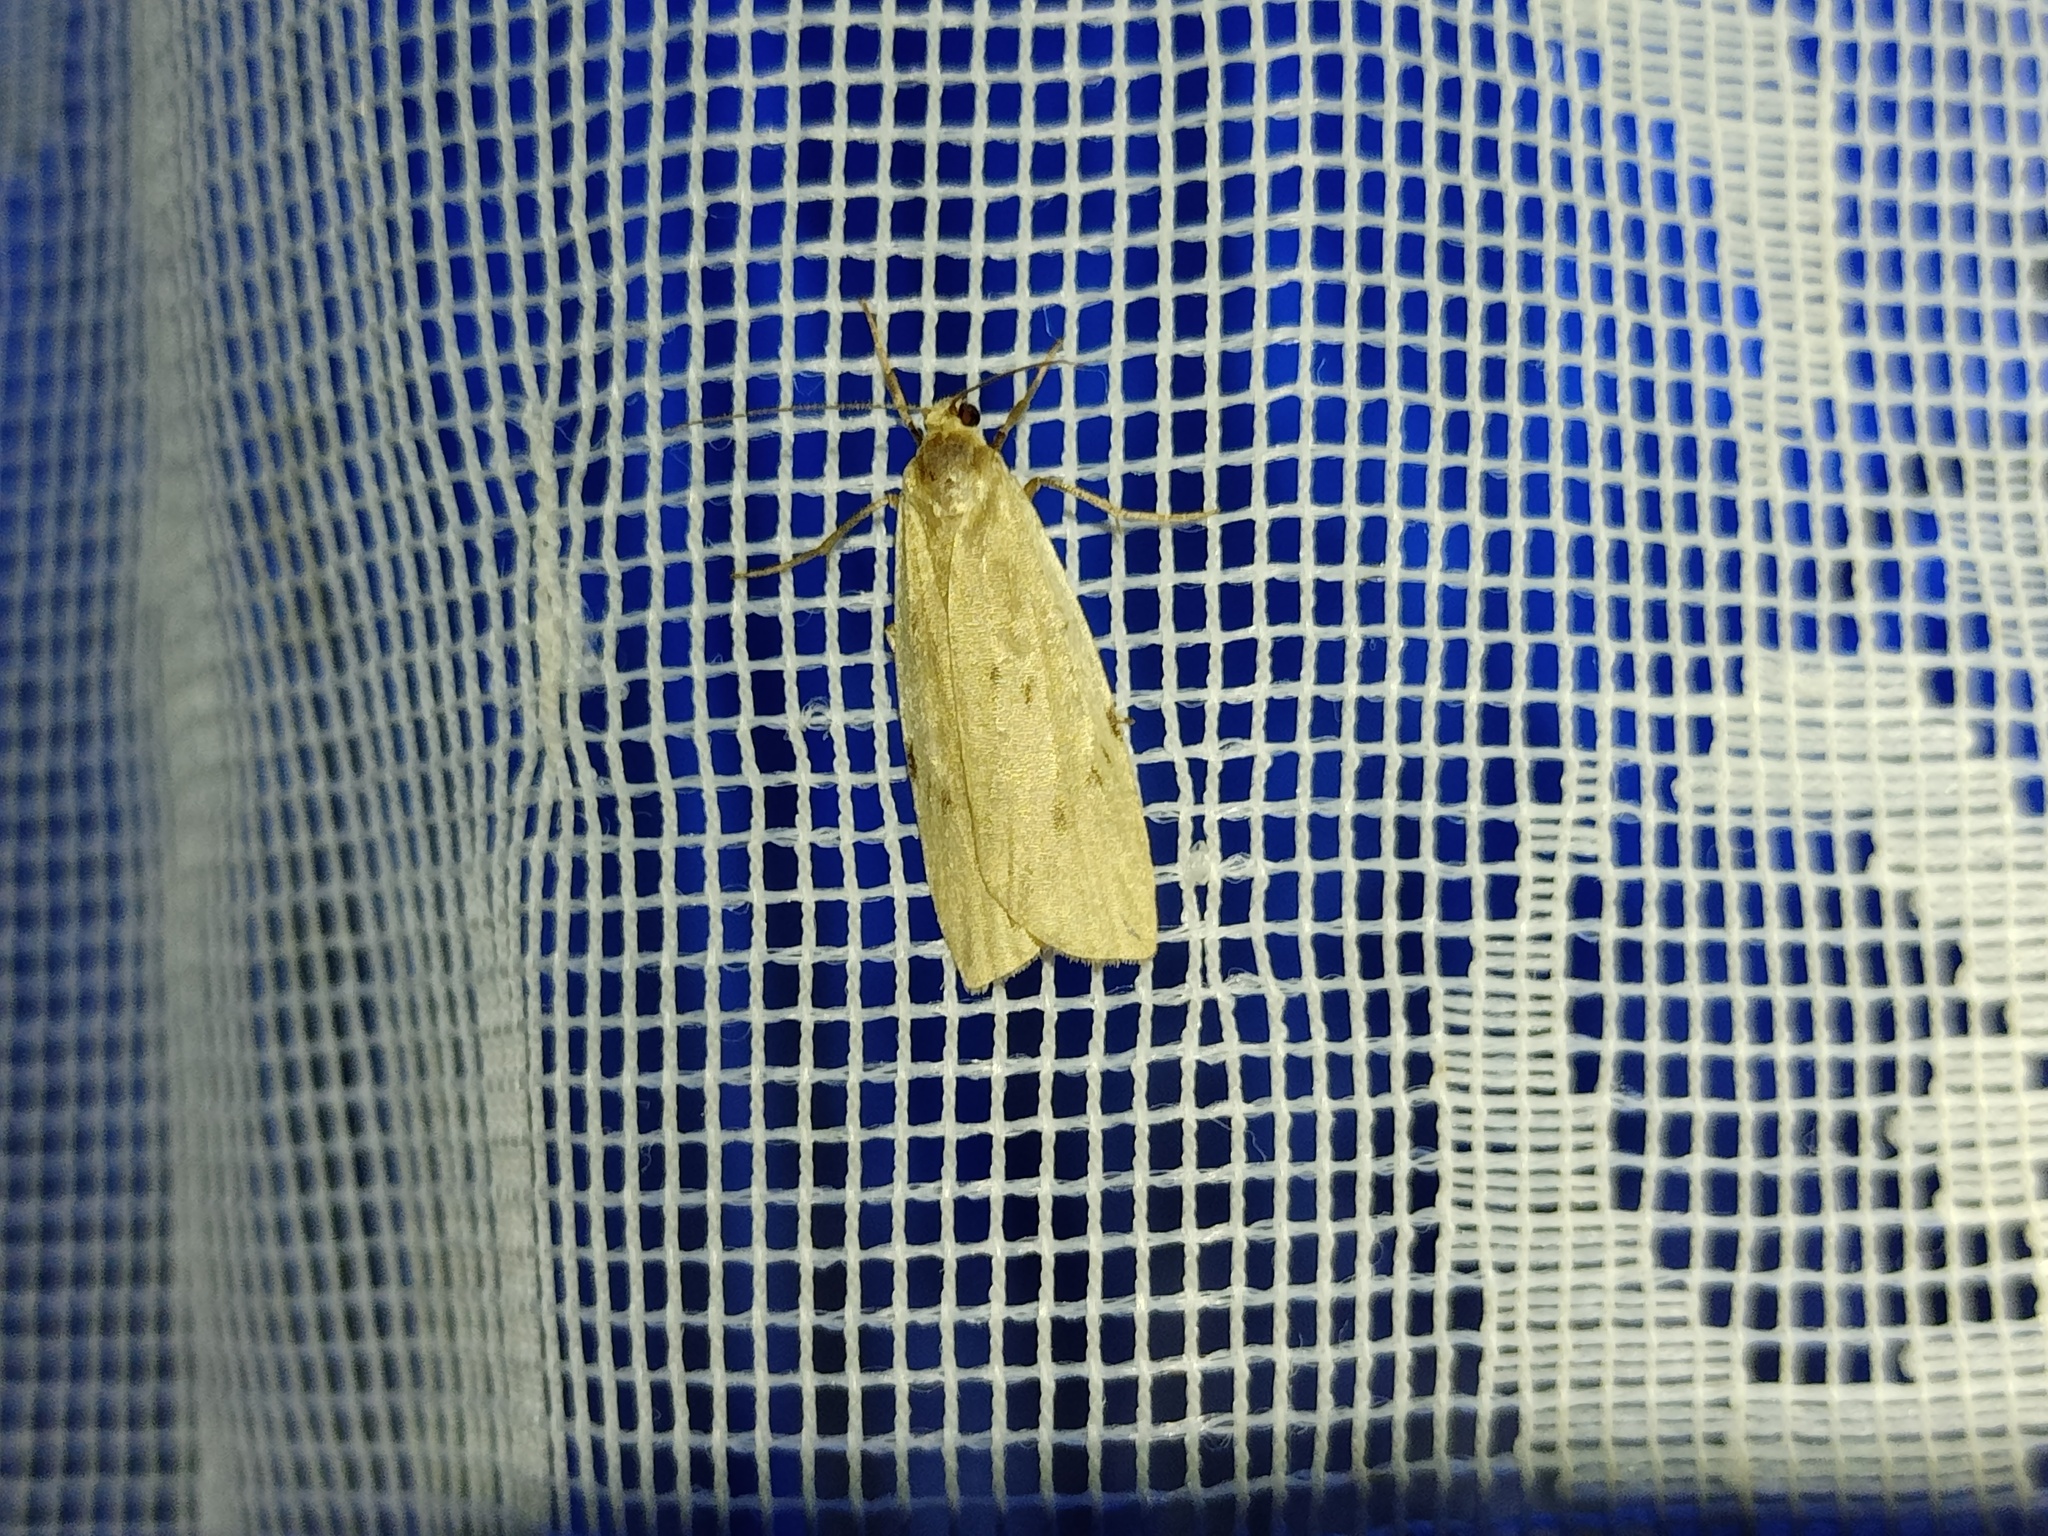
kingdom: Animalia
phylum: Arthropoda
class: Insecta
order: Lepidoptera
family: Erebidae
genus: Pelosia
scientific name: Pelosia muscerda
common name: Dotted footman
